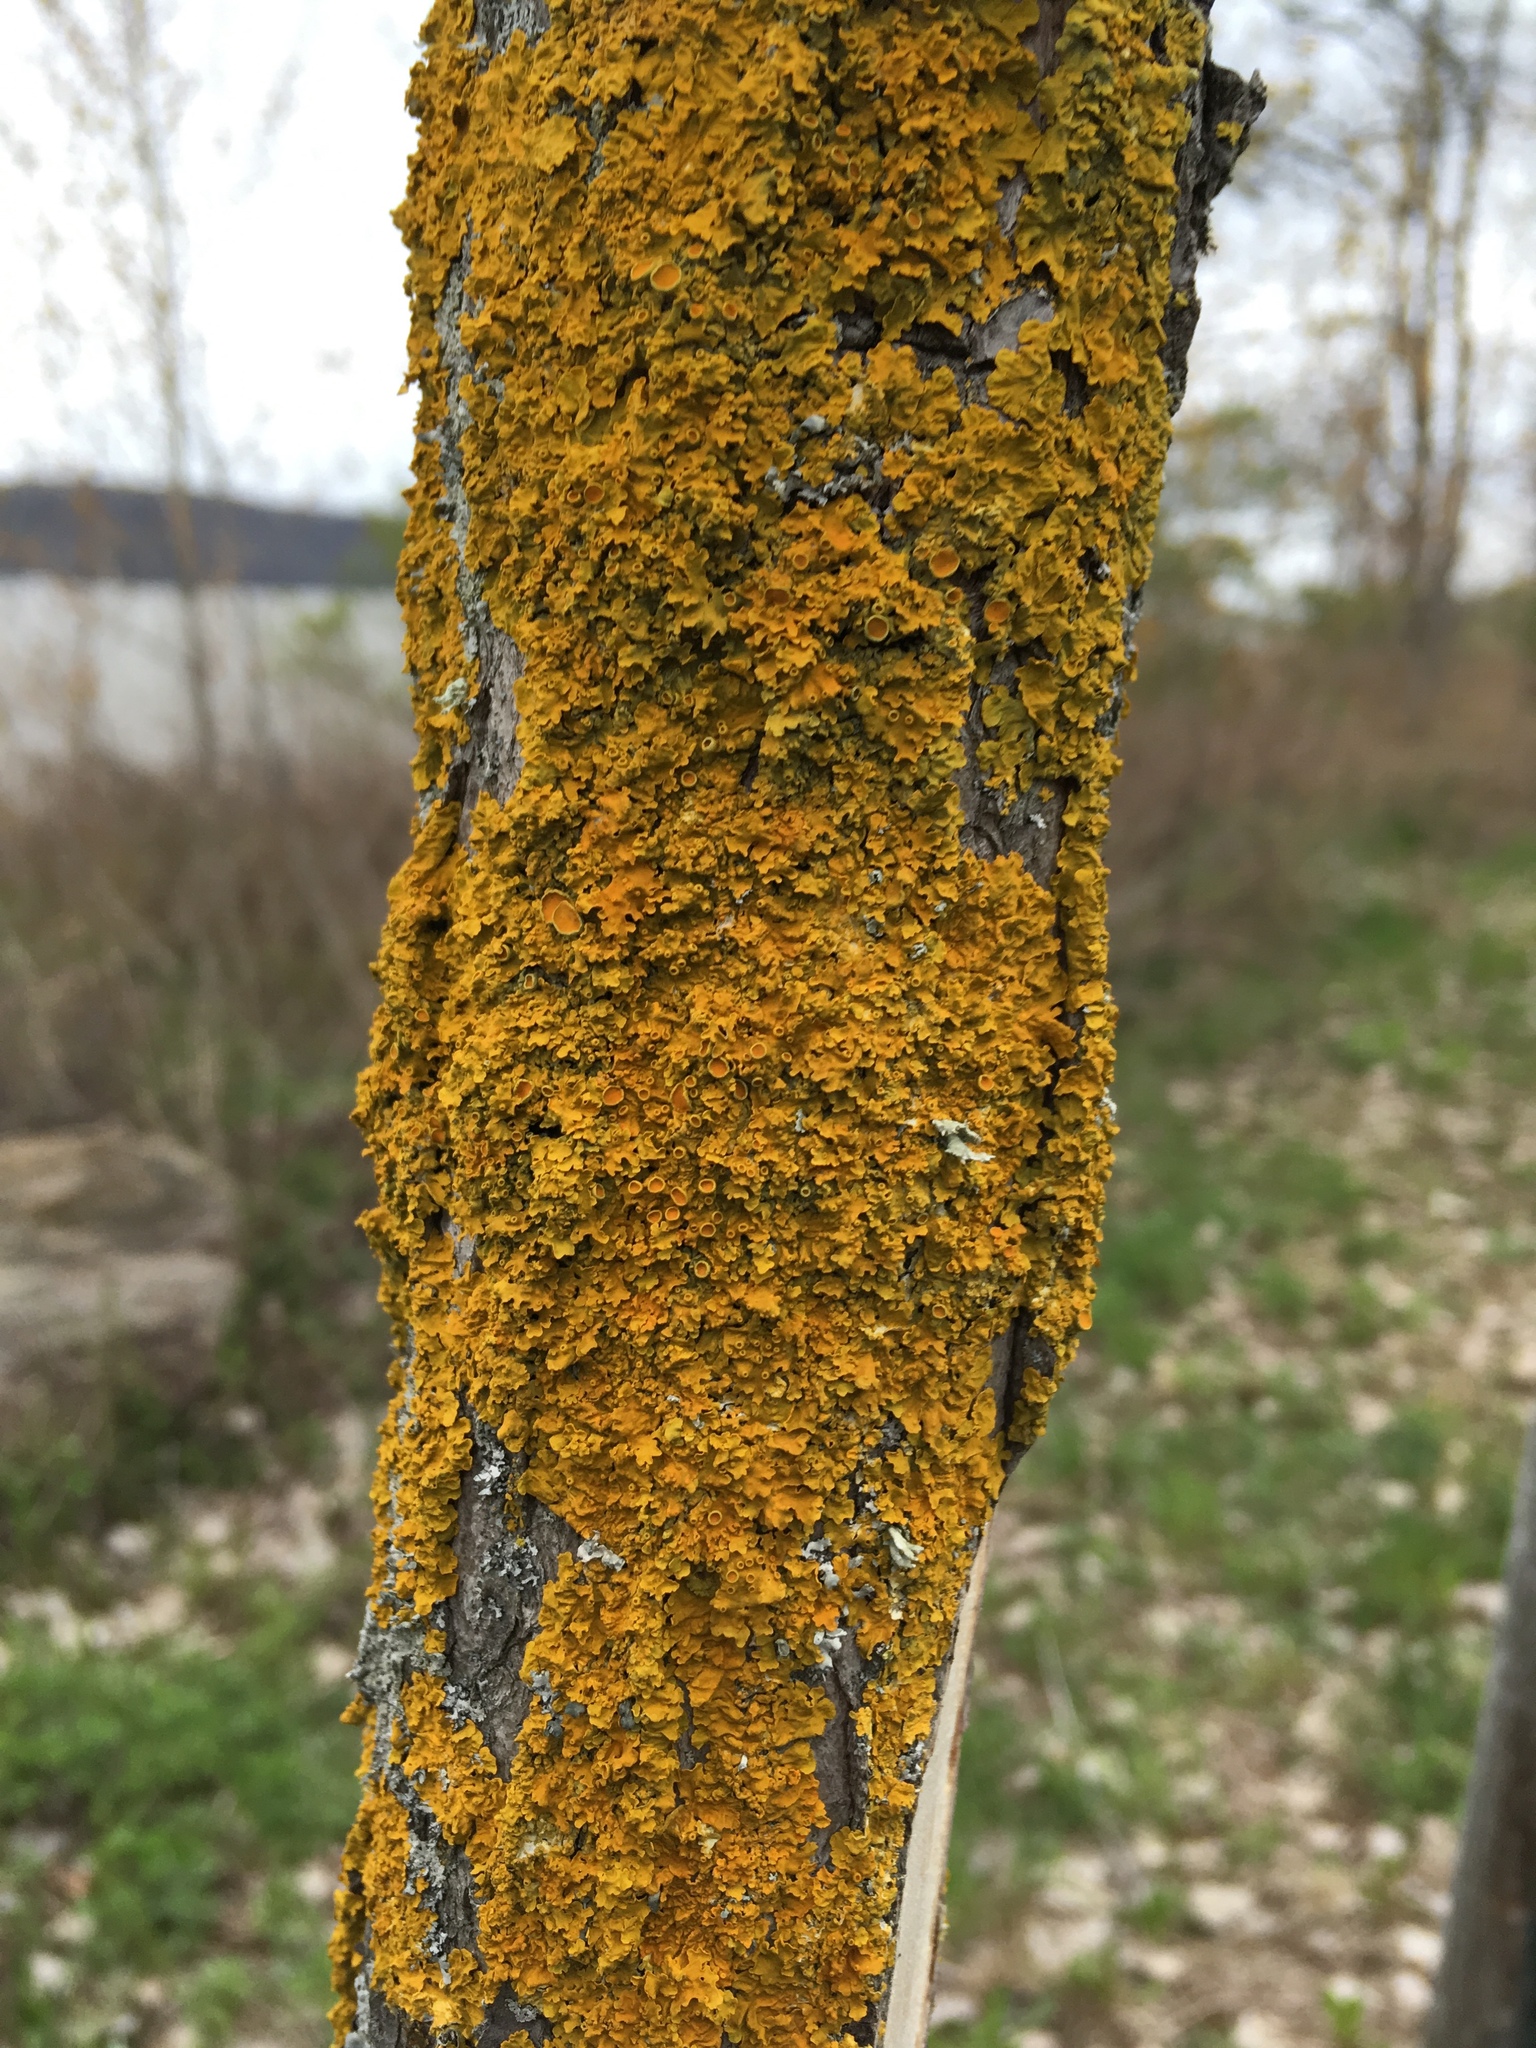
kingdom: Fungi
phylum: Ascomycota
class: Lecanoromycetes
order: Teloschistales
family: Teloschistaceae
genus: Xanthoria
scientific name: Xanthoria parietina
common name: Common orange lichen
